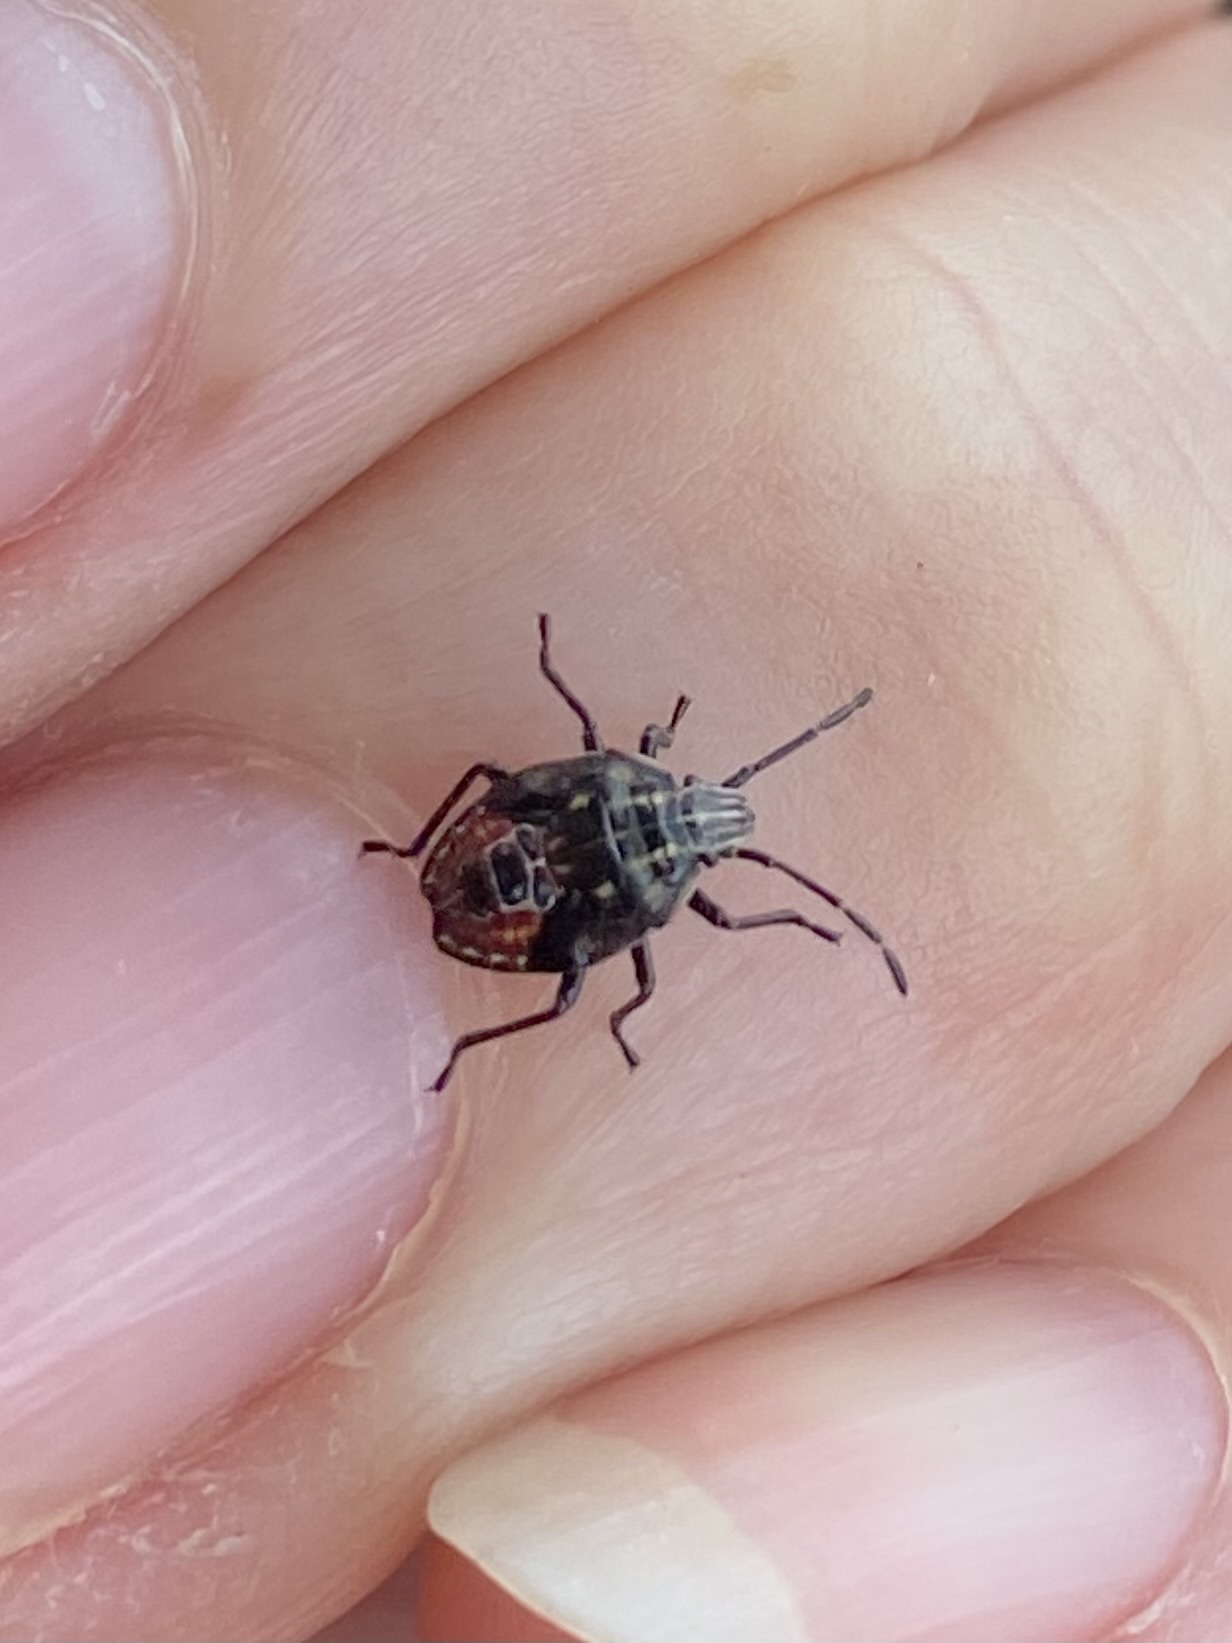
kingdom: Animalia
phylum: Arthropoda
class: Insecta
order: Hemiptera
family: Acanthosomatidae
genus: Elasmucha
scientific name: Elasmucha lateralis
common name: Shield bug
